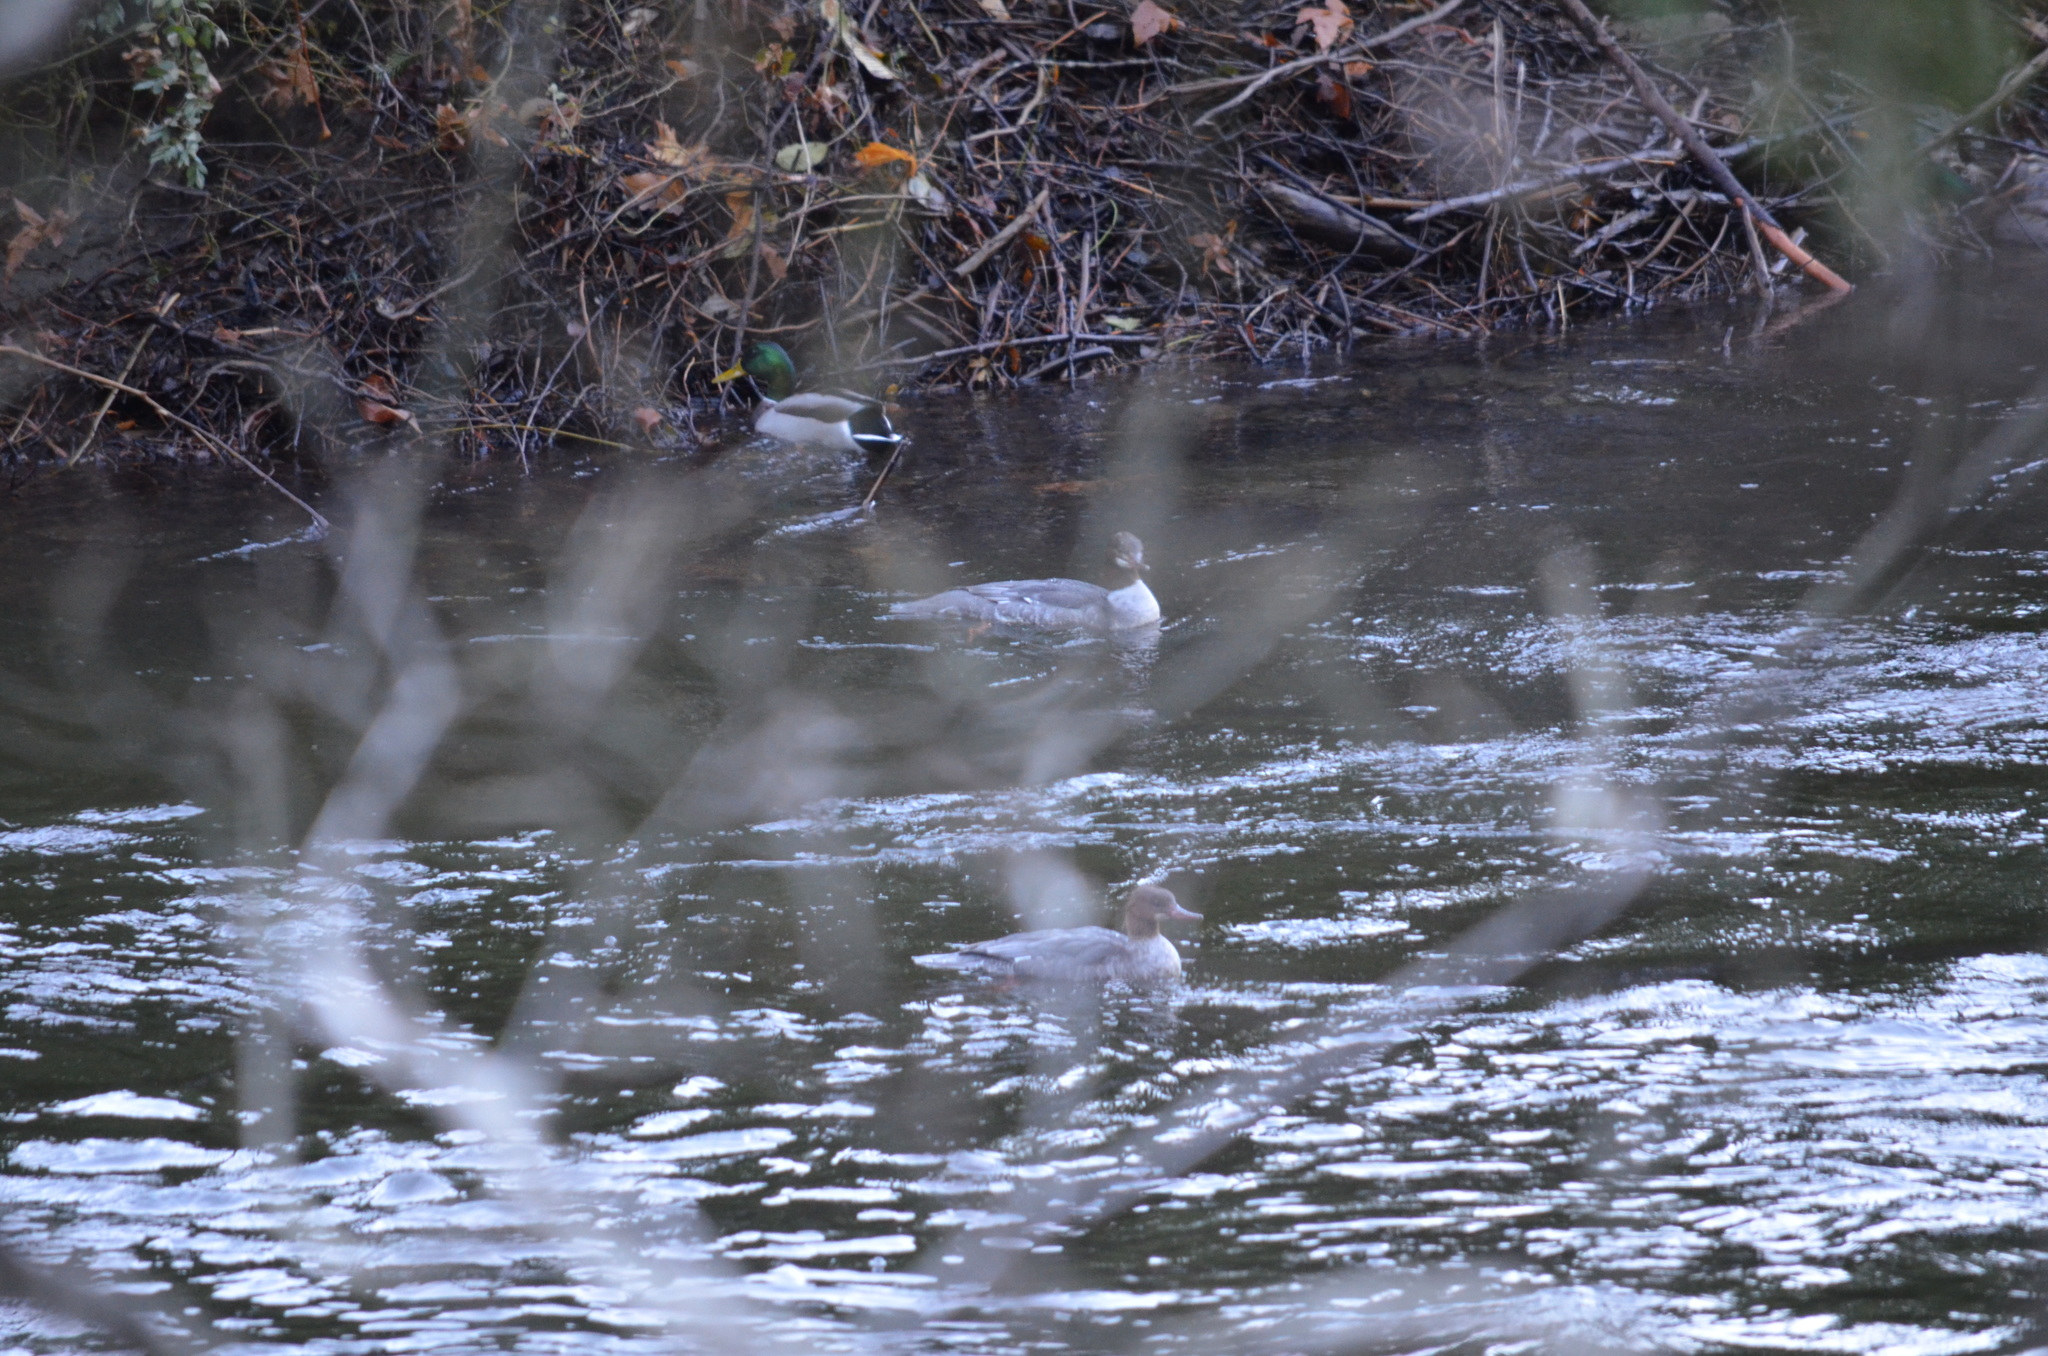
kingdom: Animalia
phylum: Chordata
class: Aves
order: Anseriformes
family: Anatidae
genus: Mergus
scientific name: Mergus merganser
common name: Common merganser
